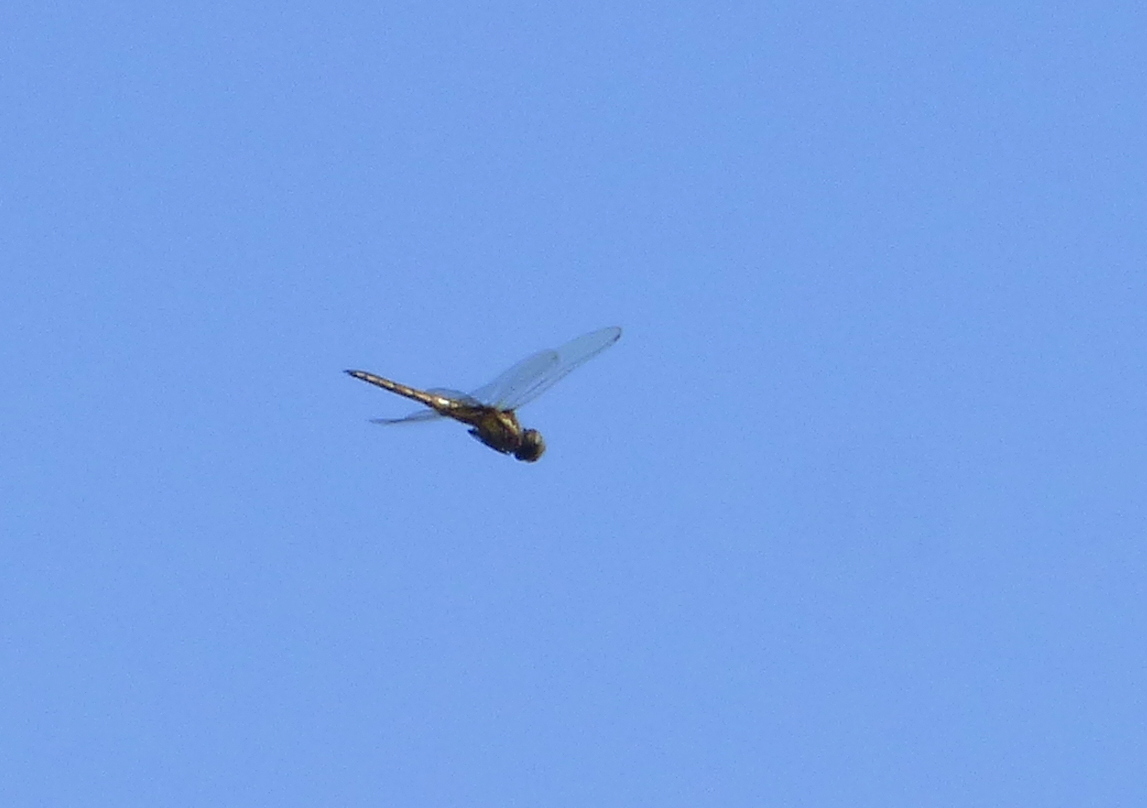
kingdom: Animalia
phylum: Arthropoda
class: Insecta
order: Odonata
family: Libellulidae
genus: Miathyria
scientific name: Miathyria marcella
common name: Hyacinth glider
